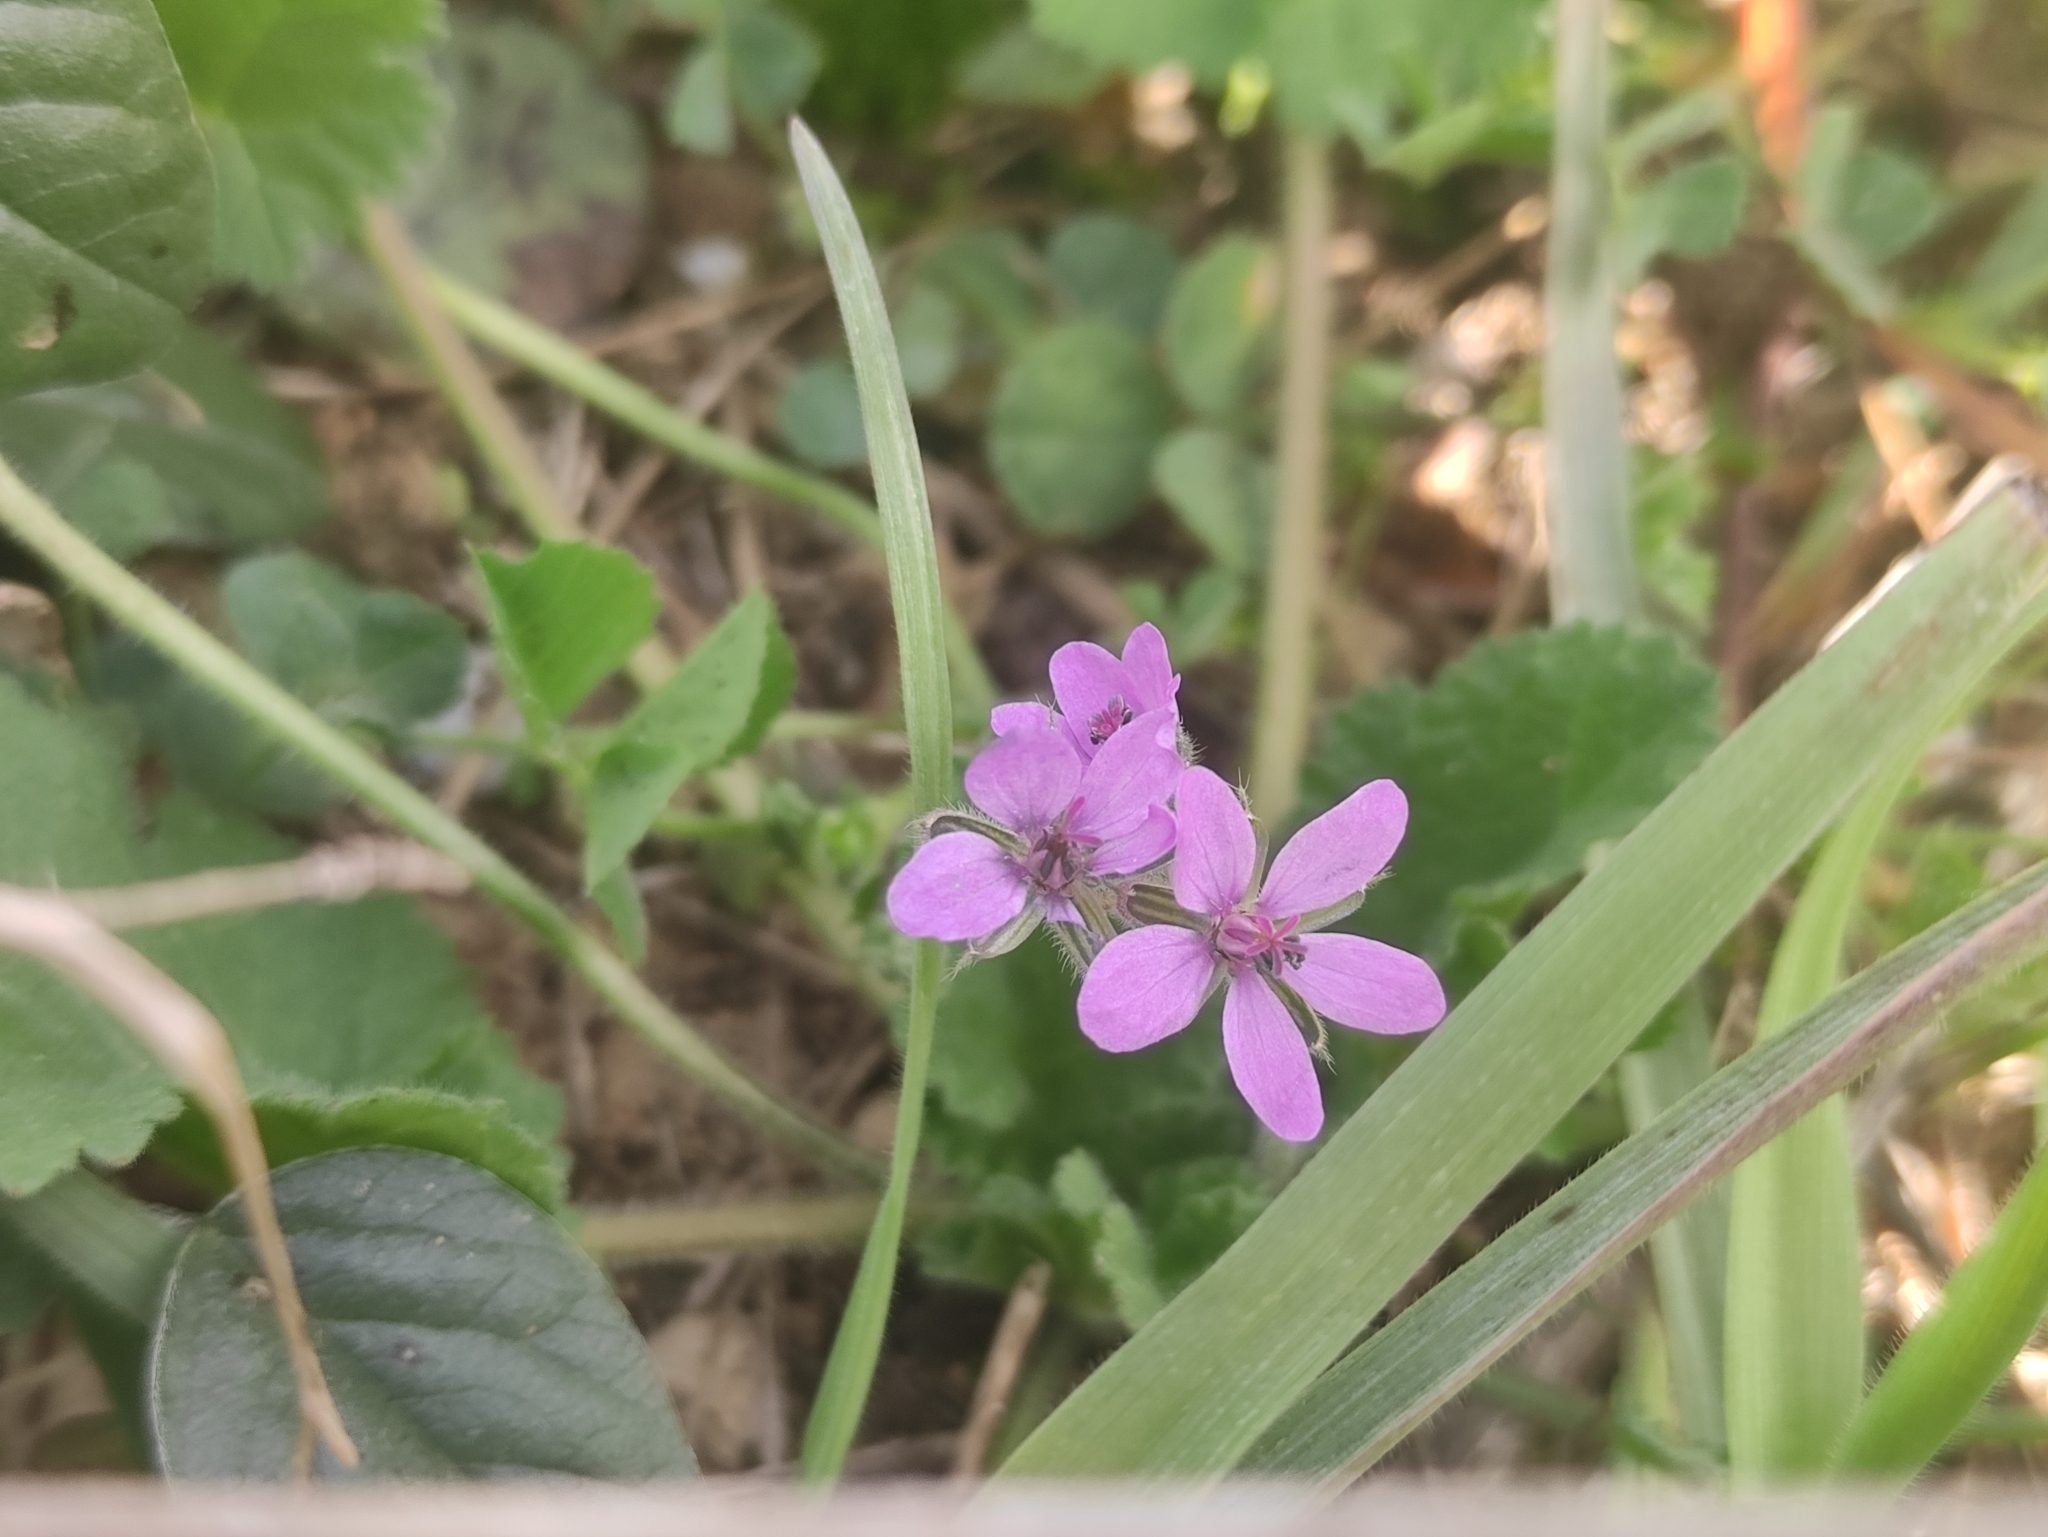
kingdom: Plantae
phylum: Tracheophyta
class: Magnoliopsida
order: Geraniales
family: Geraniaceae
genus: Erodium
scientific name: Erodium malacoides
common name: Soft stork's-bill
